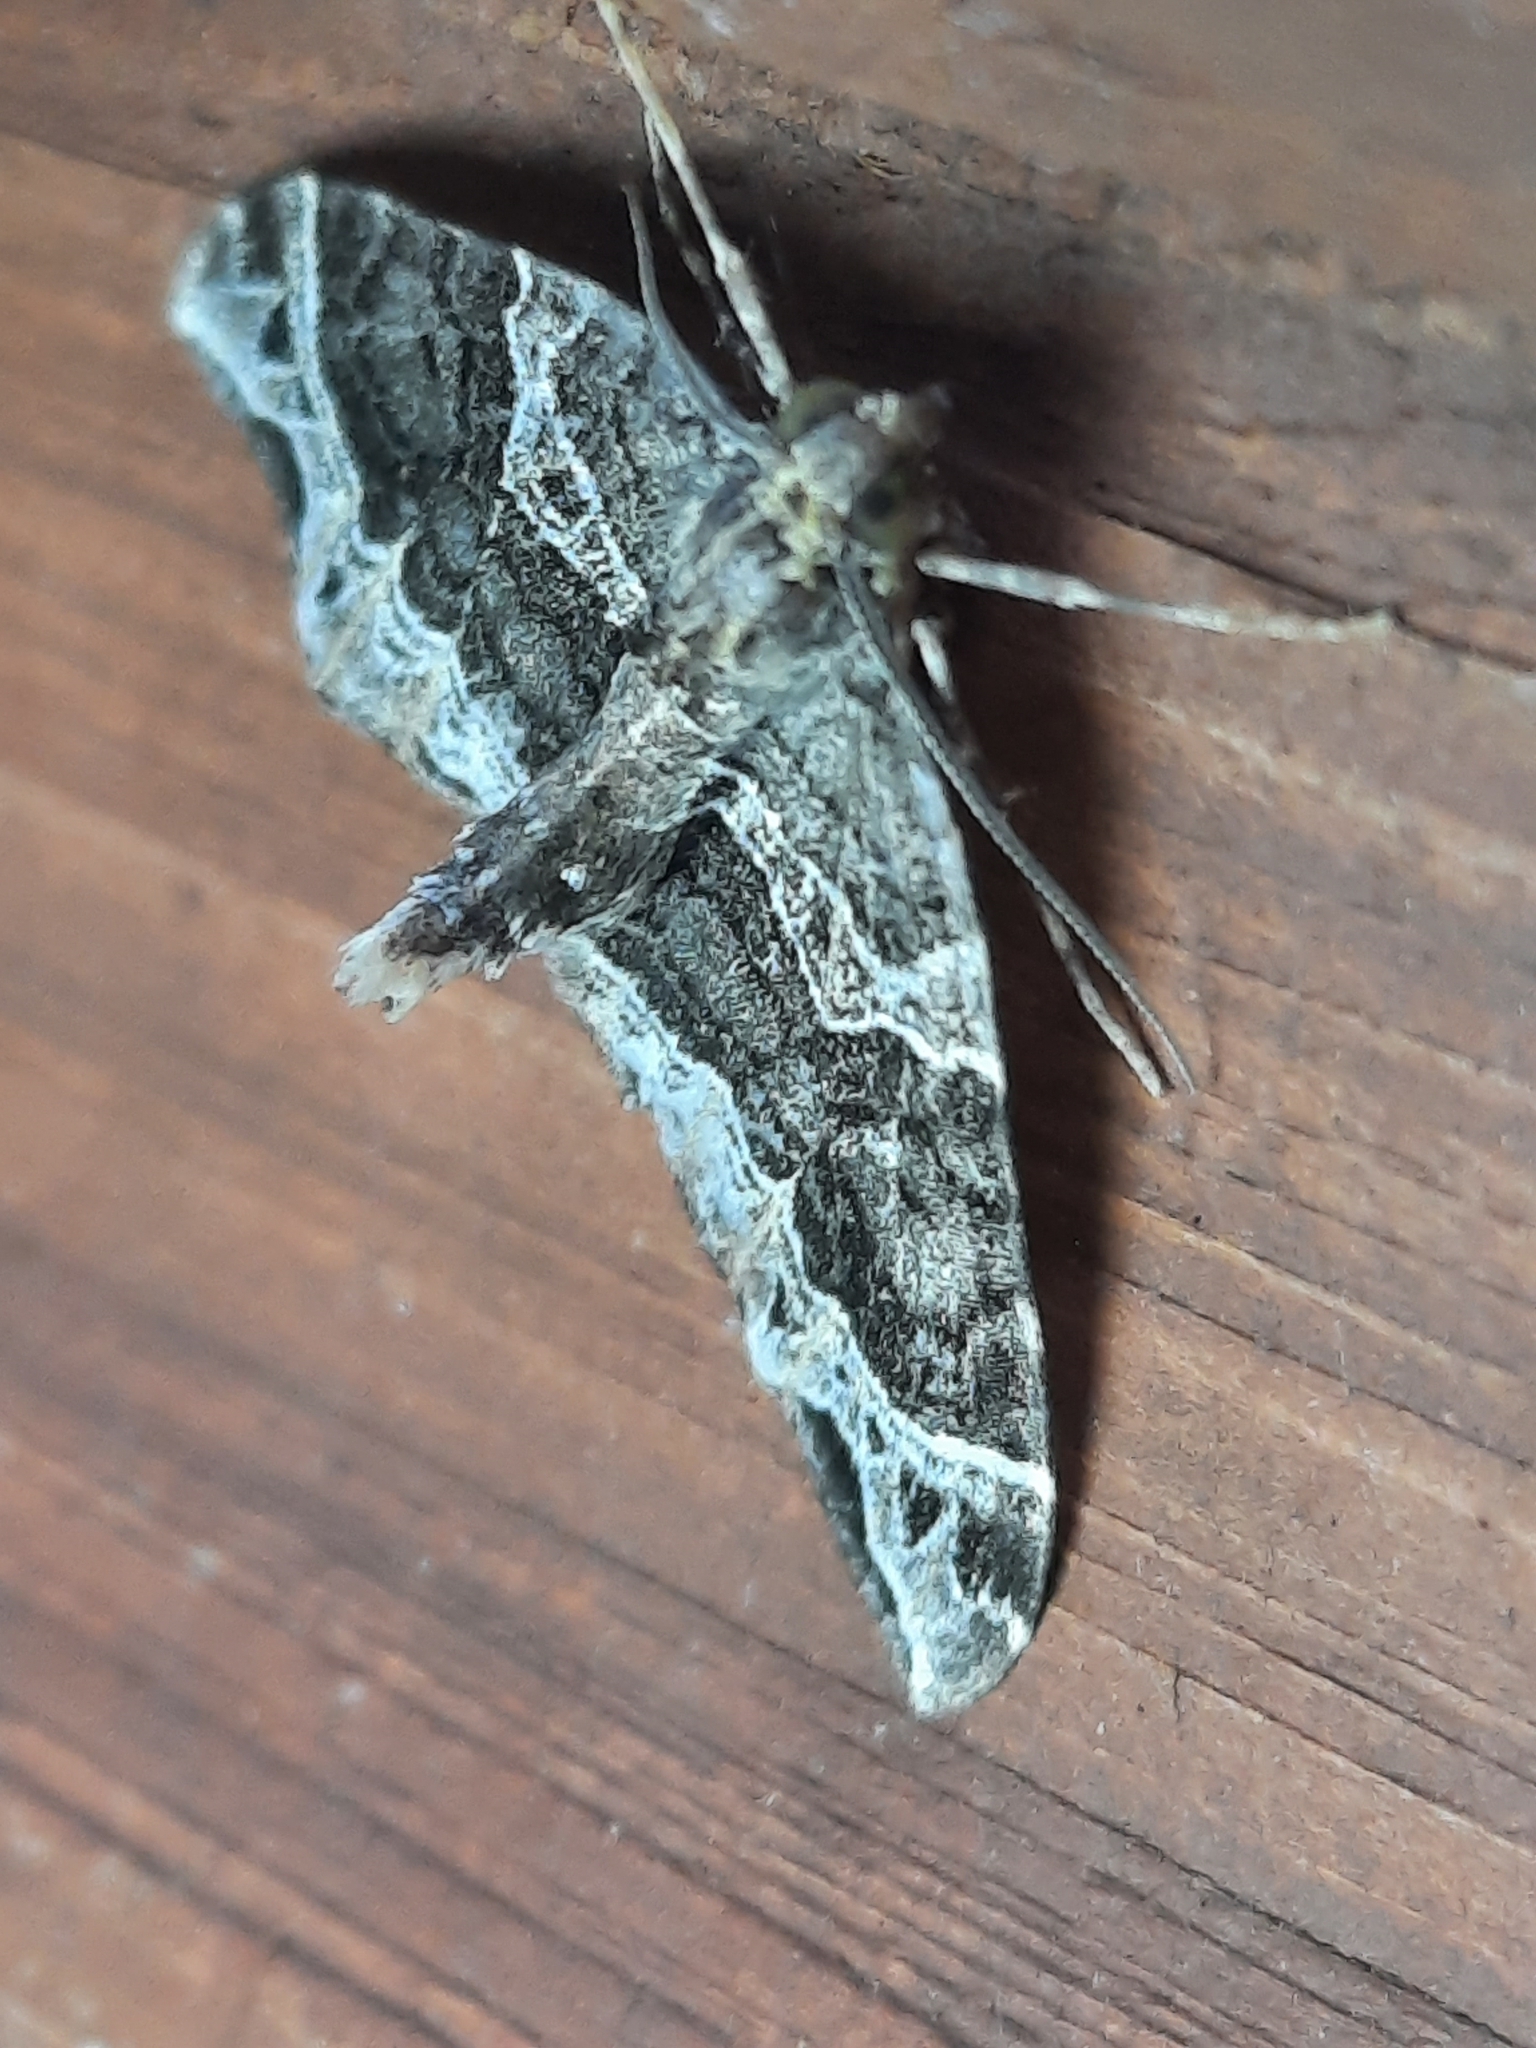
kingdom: Animalia
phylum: Arthropoda
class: Insecta
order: Lepidoptera
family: Geometridae
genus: Ecliptopera
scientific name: Ecliptopera silaceata
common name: Small phoenix
